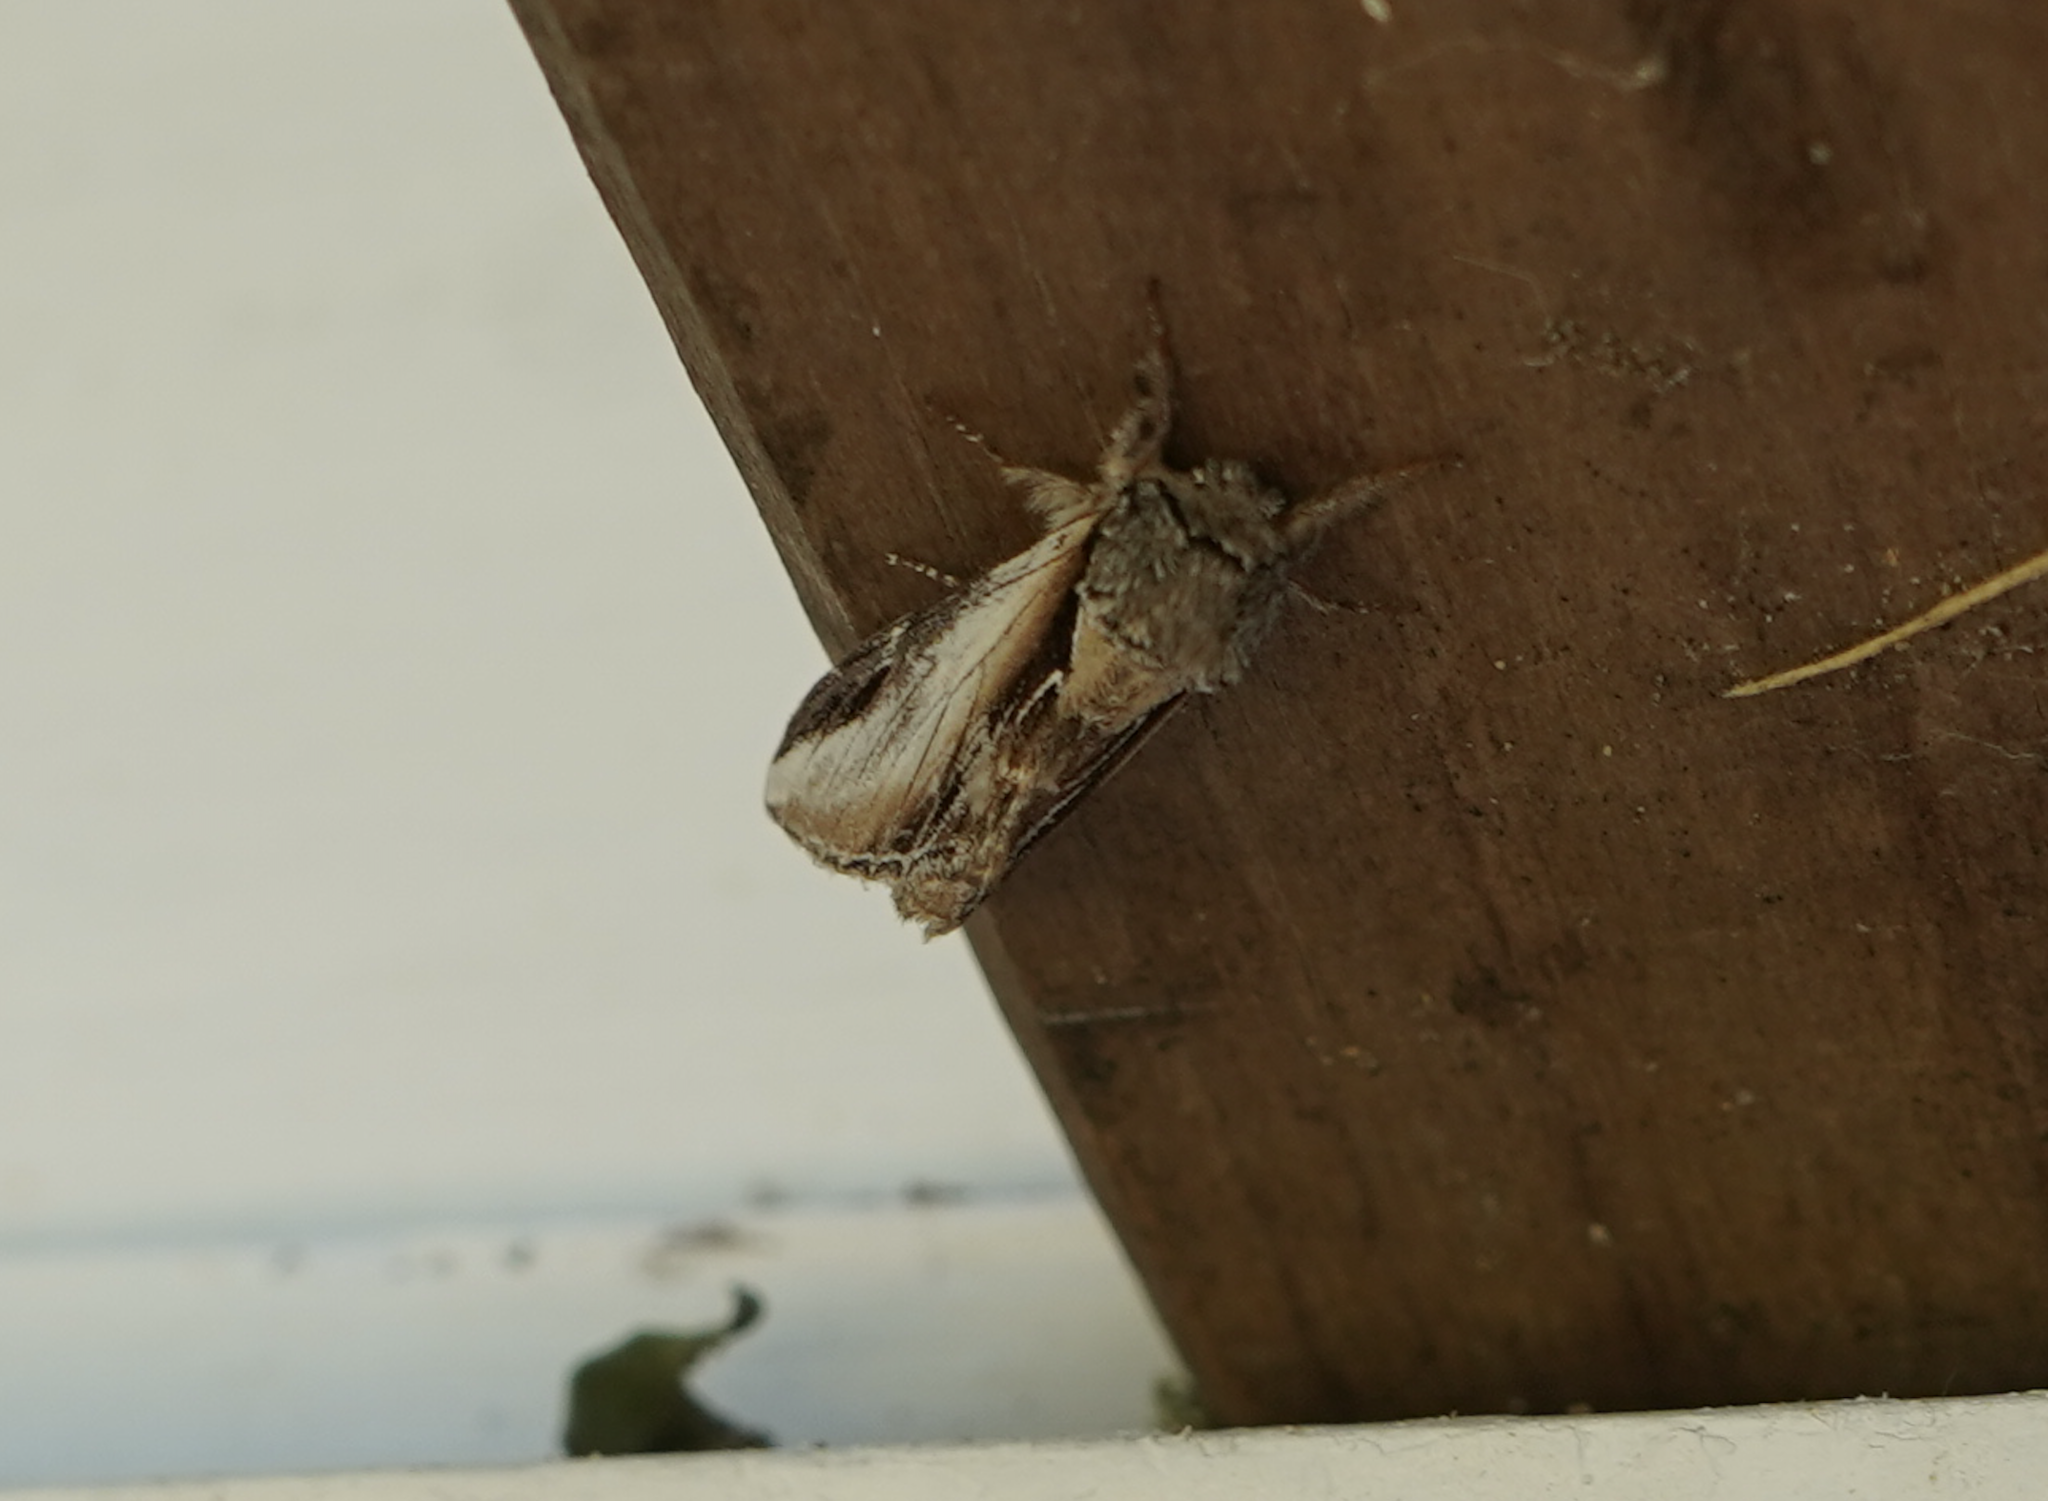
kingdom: Animalia
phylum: Arthropoda
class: Insecta
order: Lepidoptera
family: Notodontidae
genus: Pheosia
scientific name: Pheosia rimosa
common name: Black-rimmed prominent
